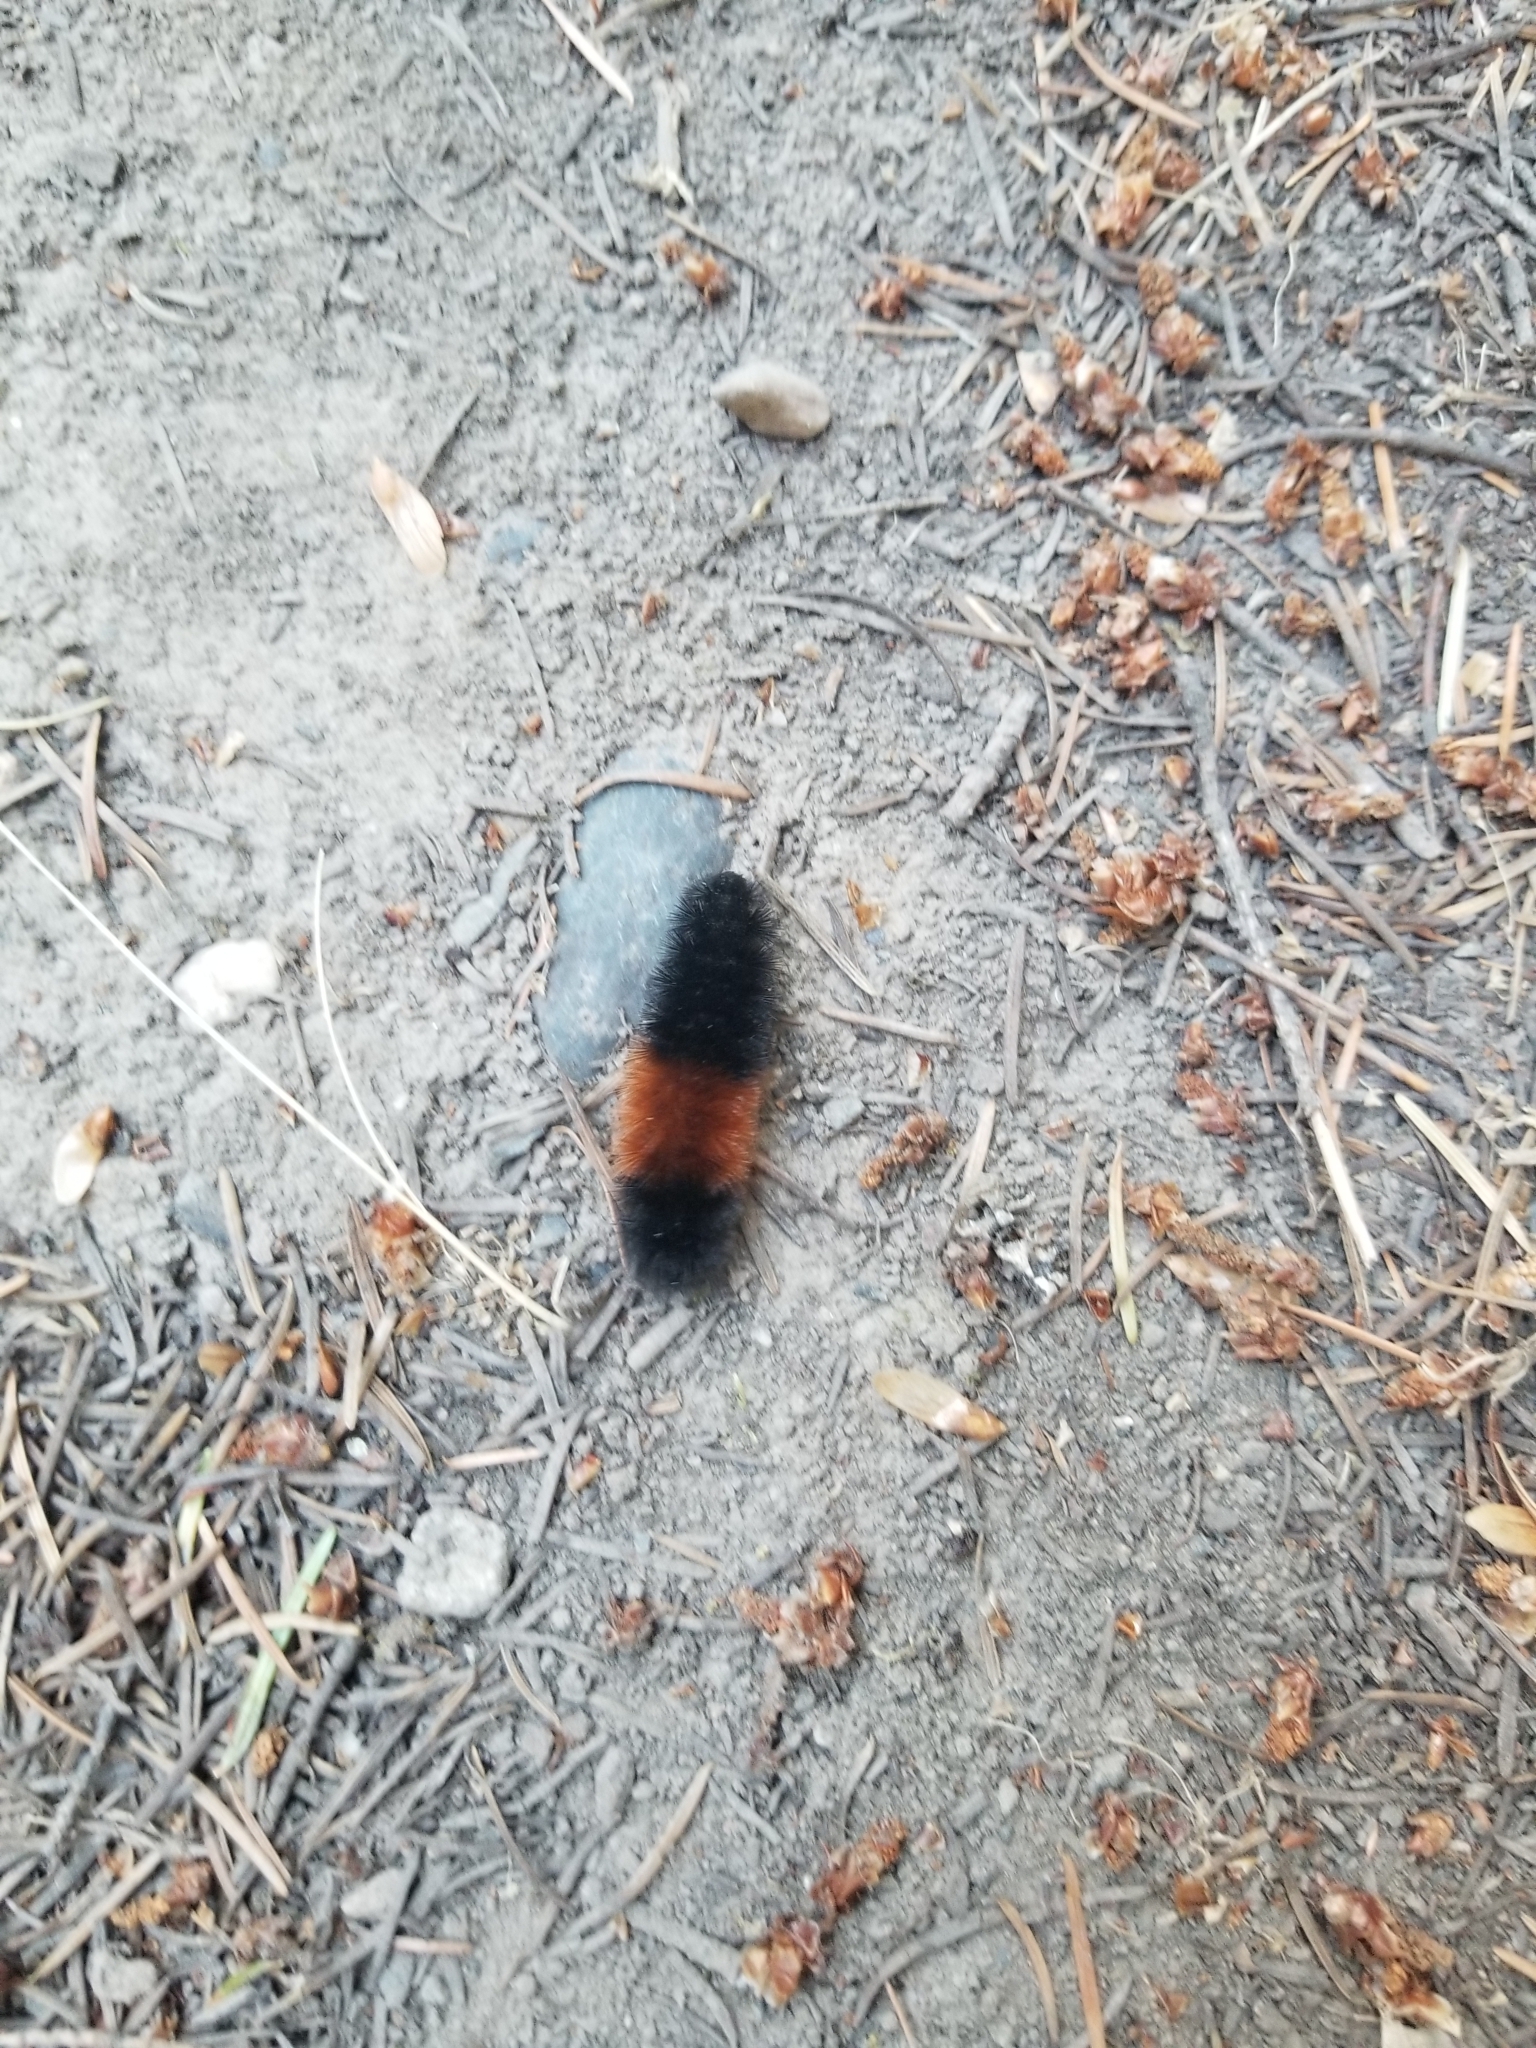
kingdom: Animalia
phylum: Arthropoda
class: Insecta
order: Lepidoptera
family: Erebidae
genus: Pyrrharctia
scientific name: Pyrrharctia isabella
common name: Isabella tiger moth
